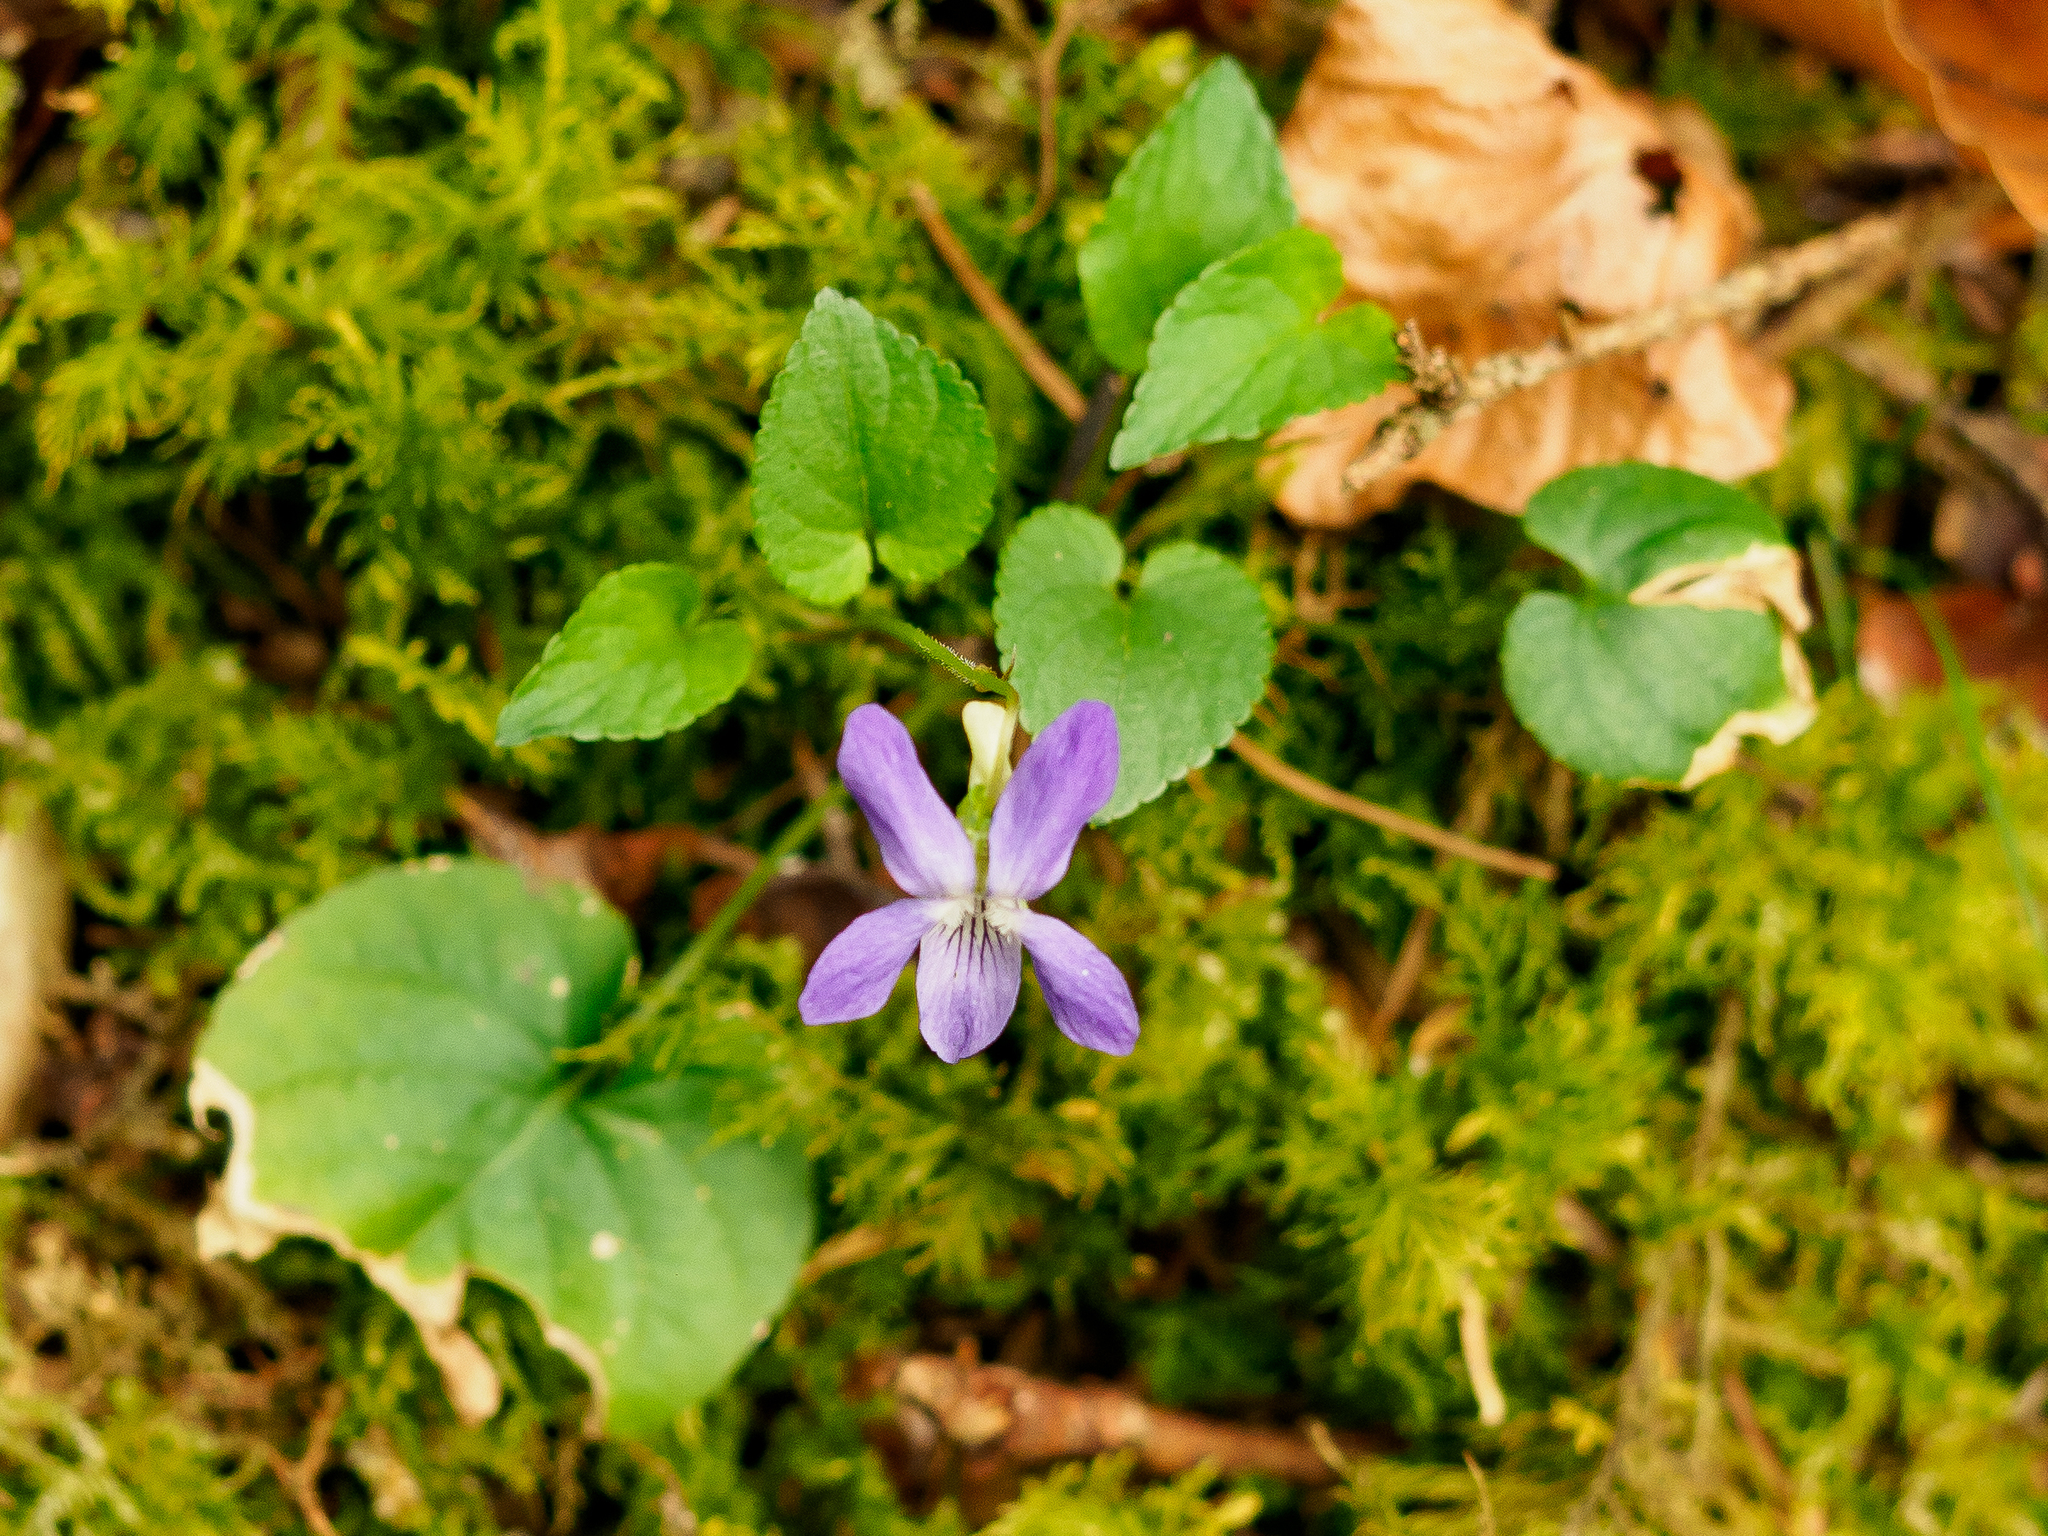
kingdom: Plantae
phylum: Tracheophyta
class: Magnoliopsida
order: Malpighiales
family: Violaceae
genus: Viola
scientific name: Viola riviniana
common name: Common dog-violet
